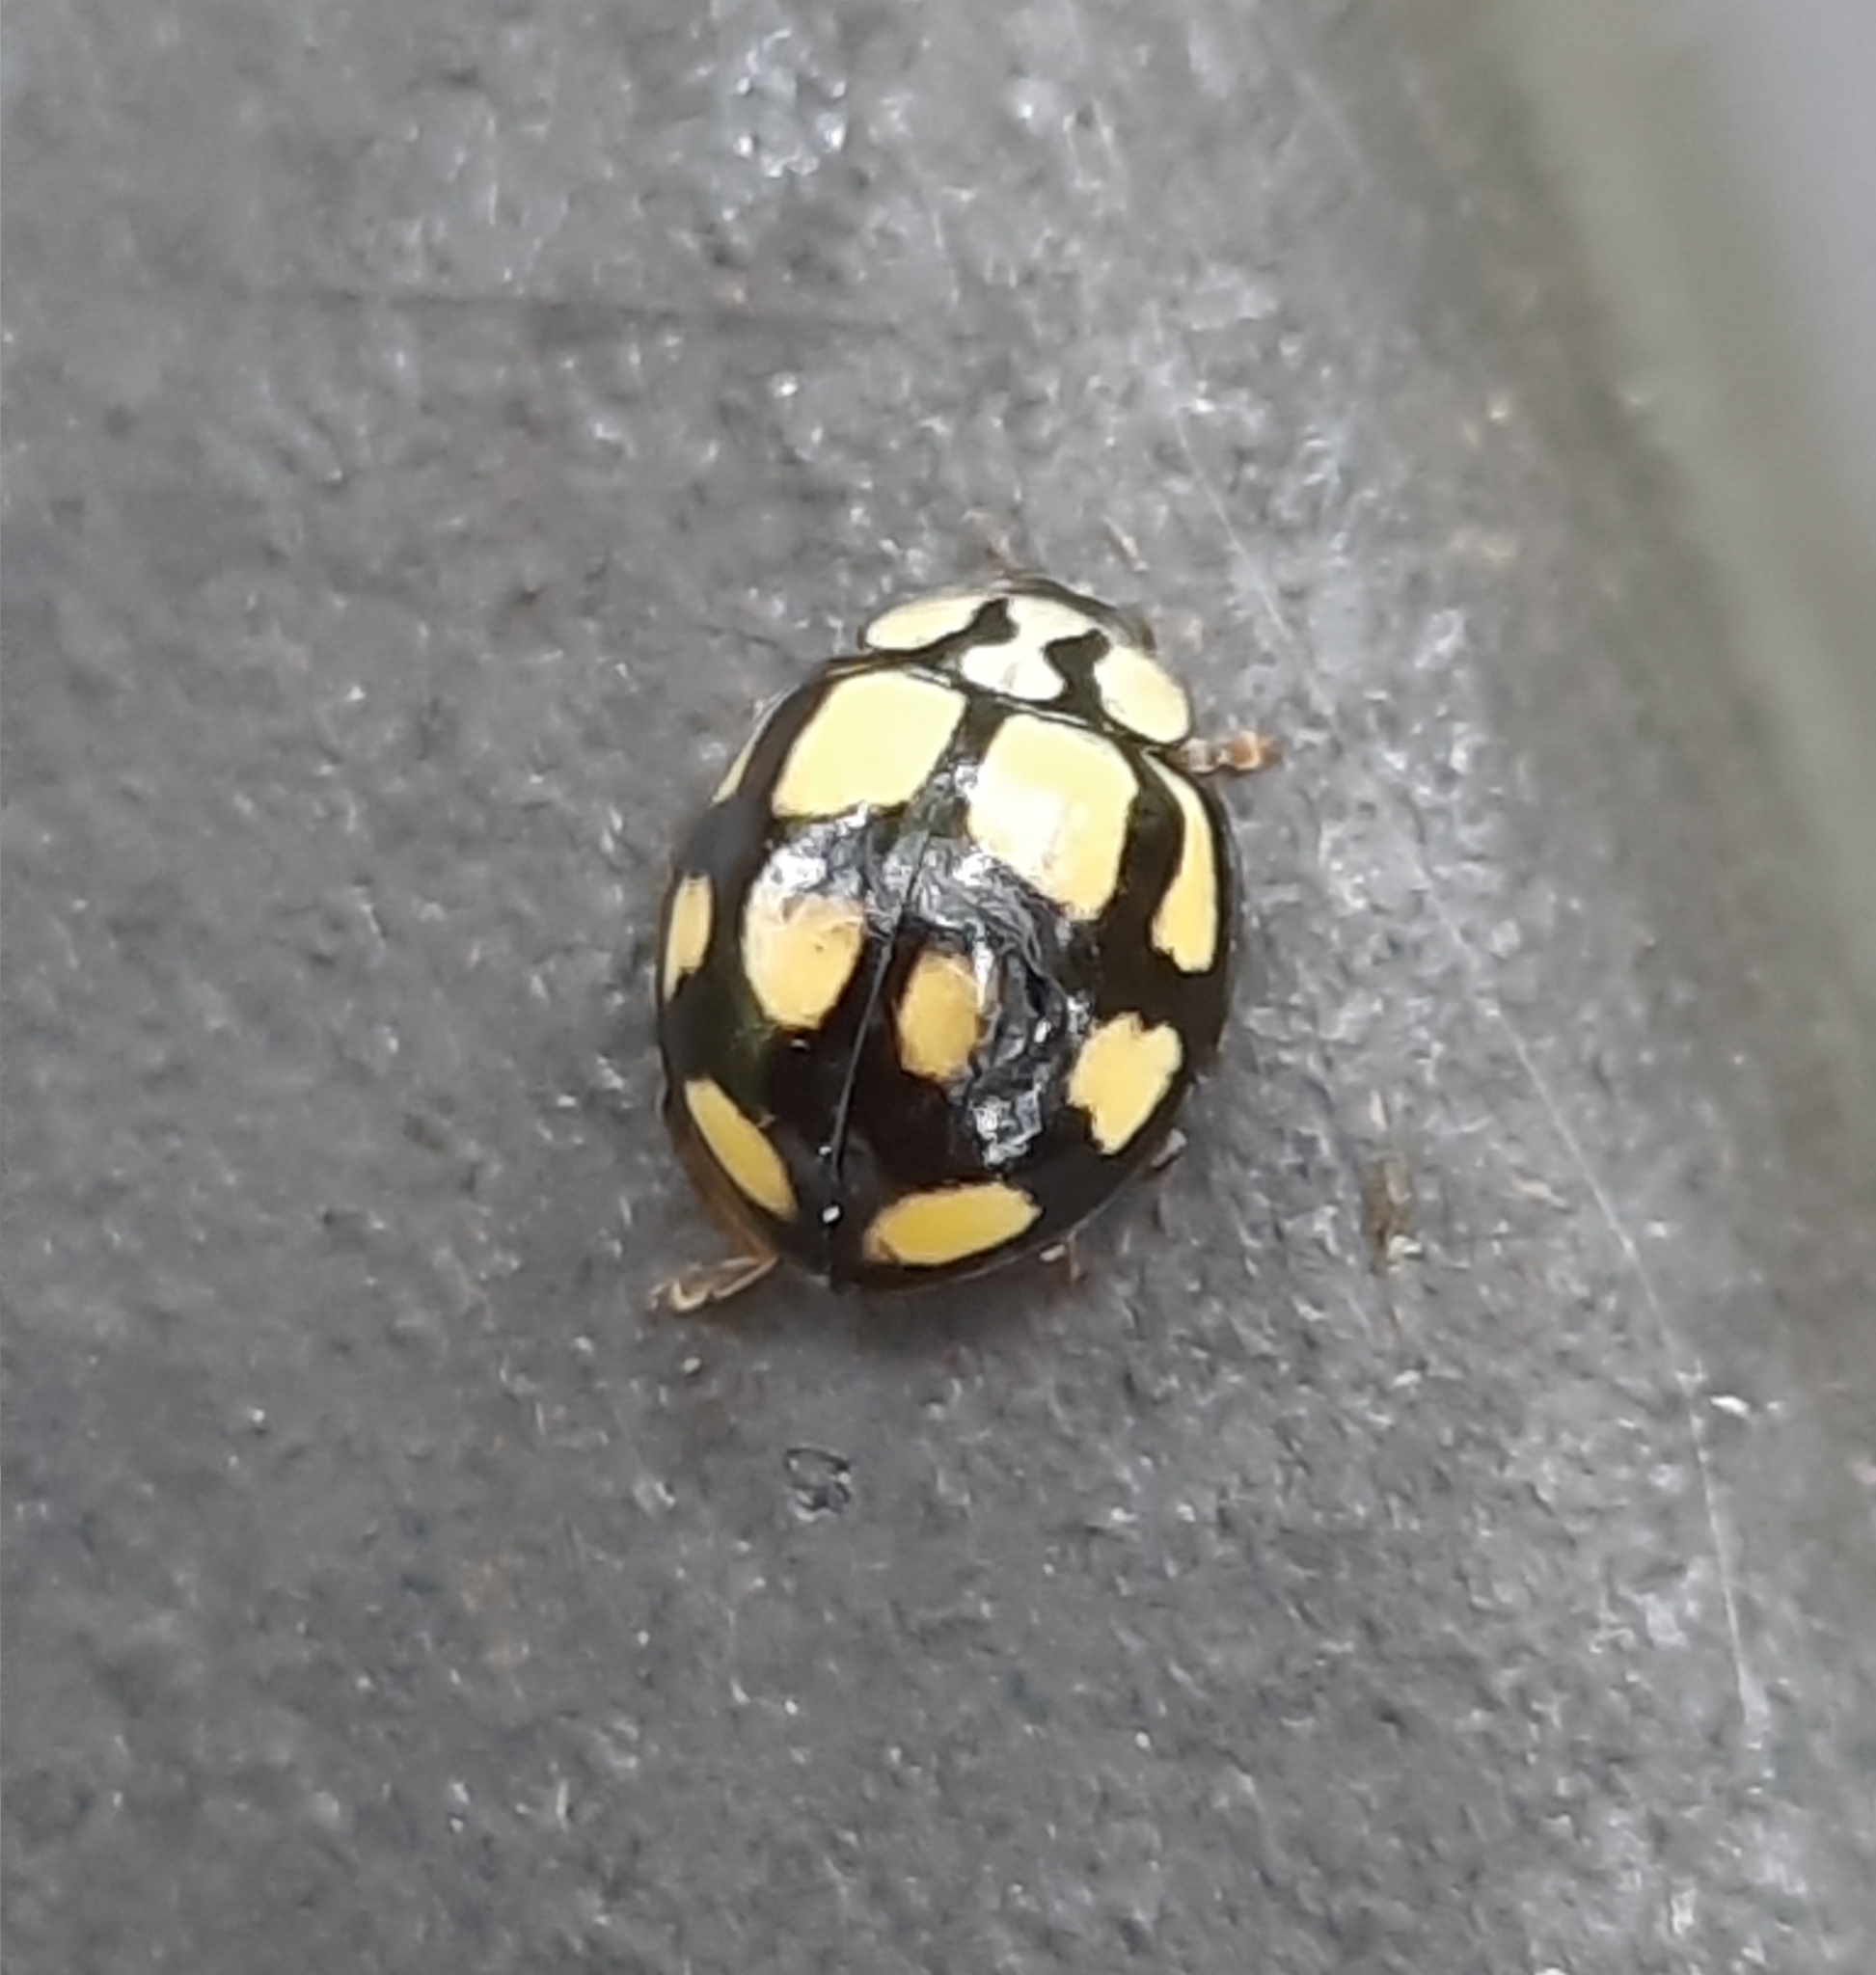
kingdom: Animalia
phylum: Arthropoda
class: Insecta
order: Coleoptera
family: Coccinellidae
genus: Harmonia
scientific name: Harmonia
